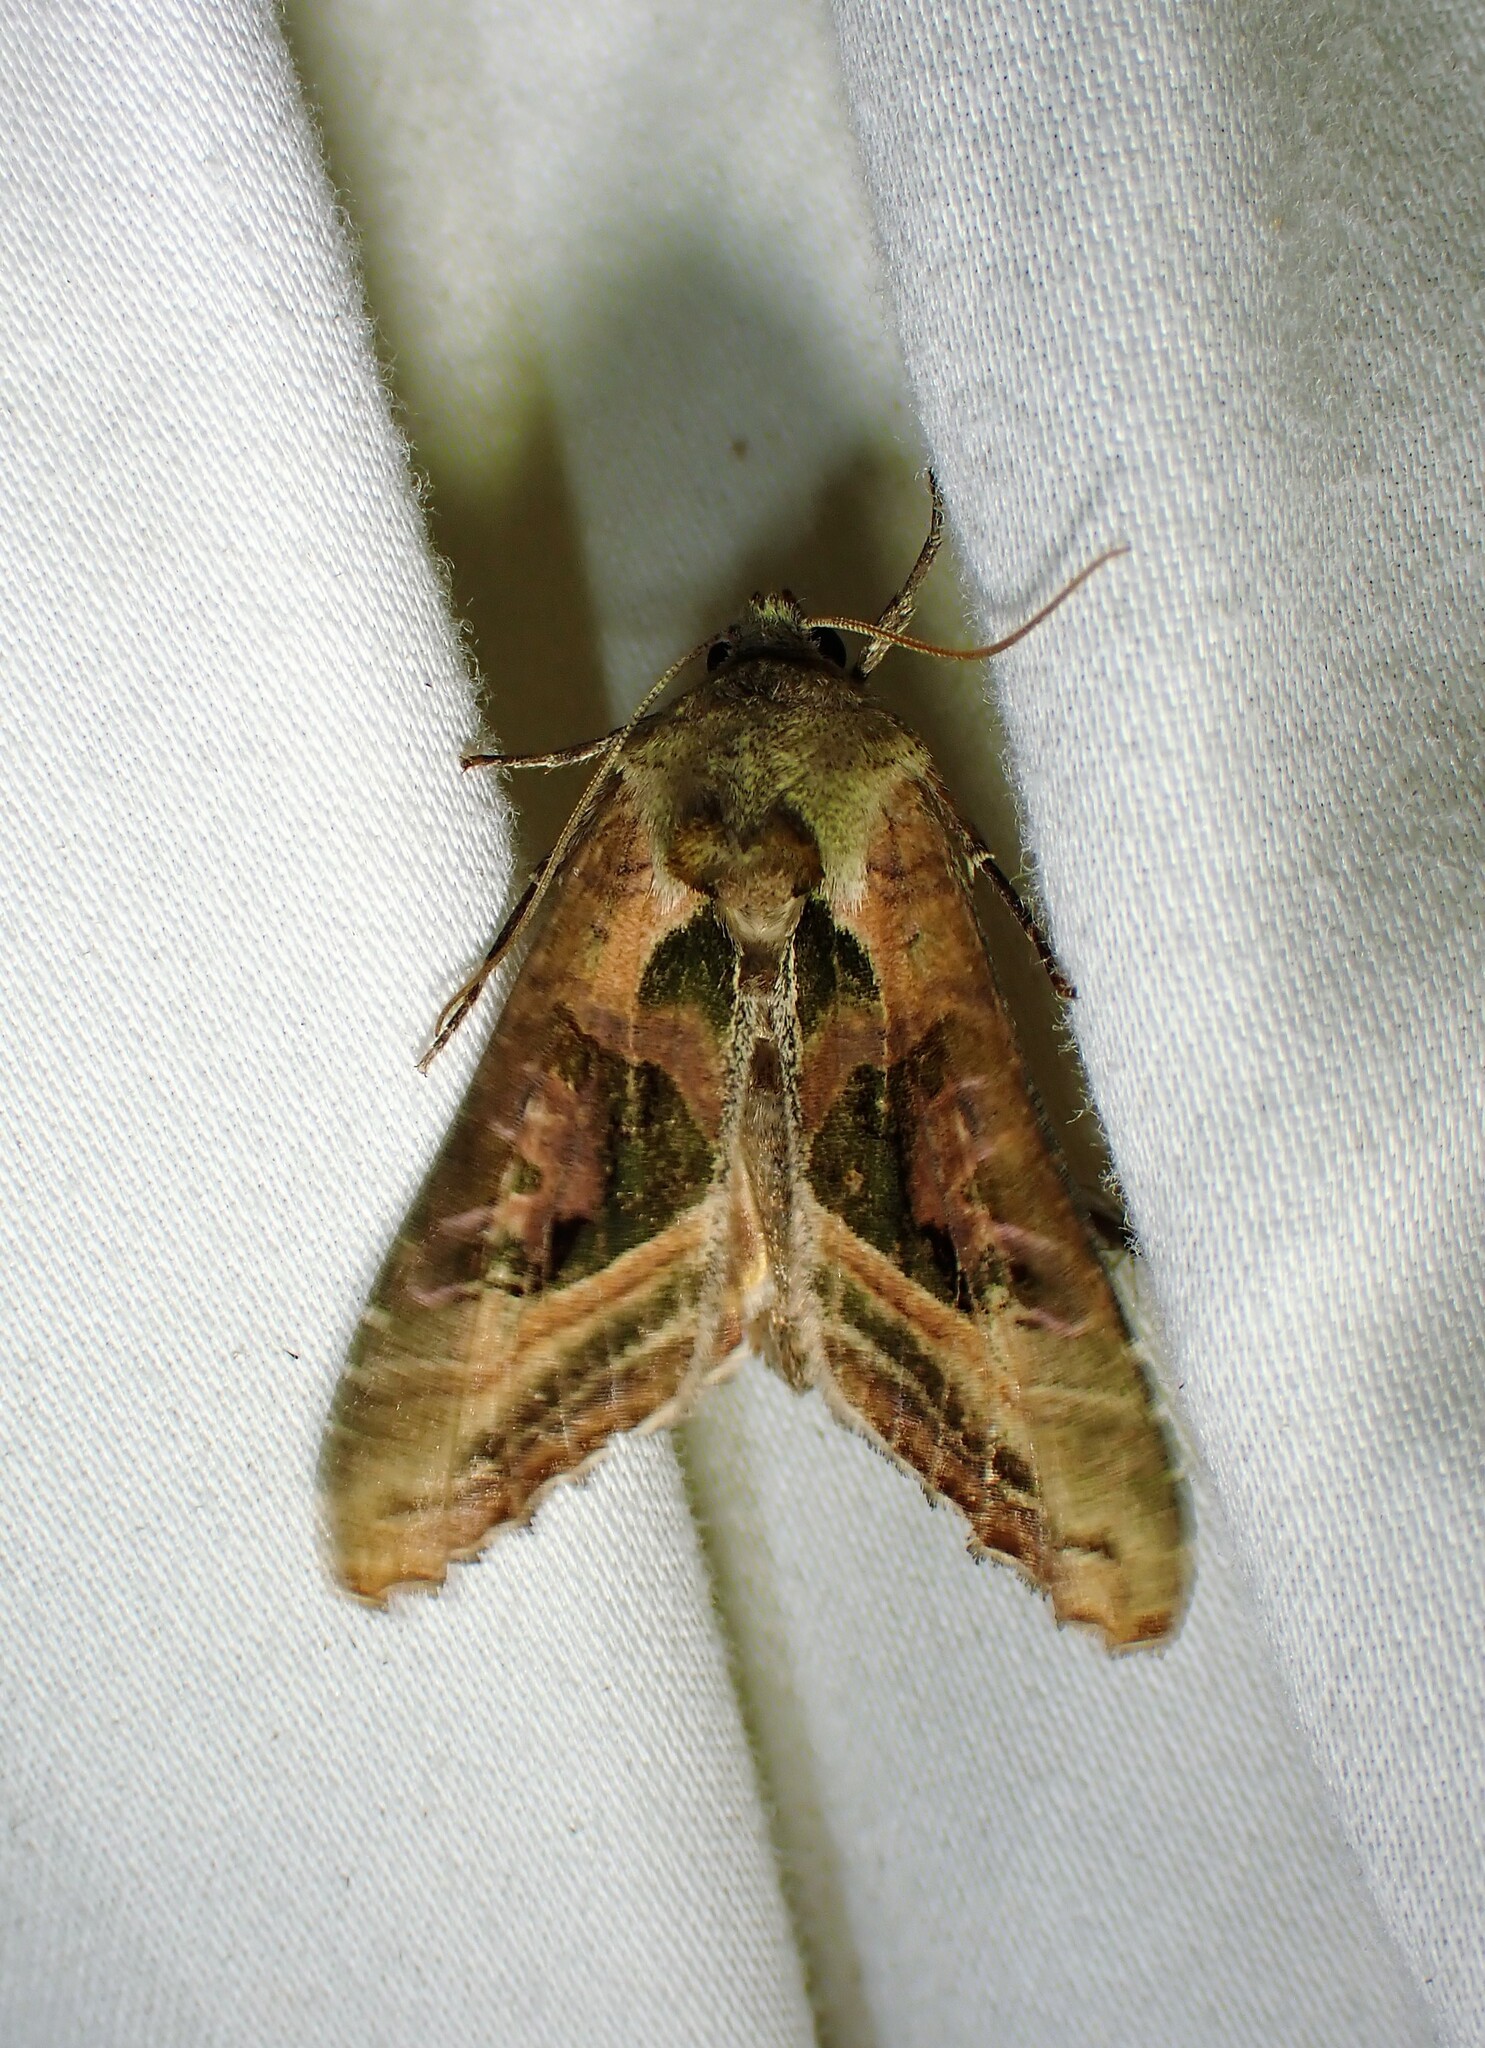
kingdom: Animalia
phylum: Arthropoda
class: Insecta
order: Lepidoptera
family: Noctuidae
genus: Phlogophora
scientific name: Phlogophora iris
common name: Olive angle shades
